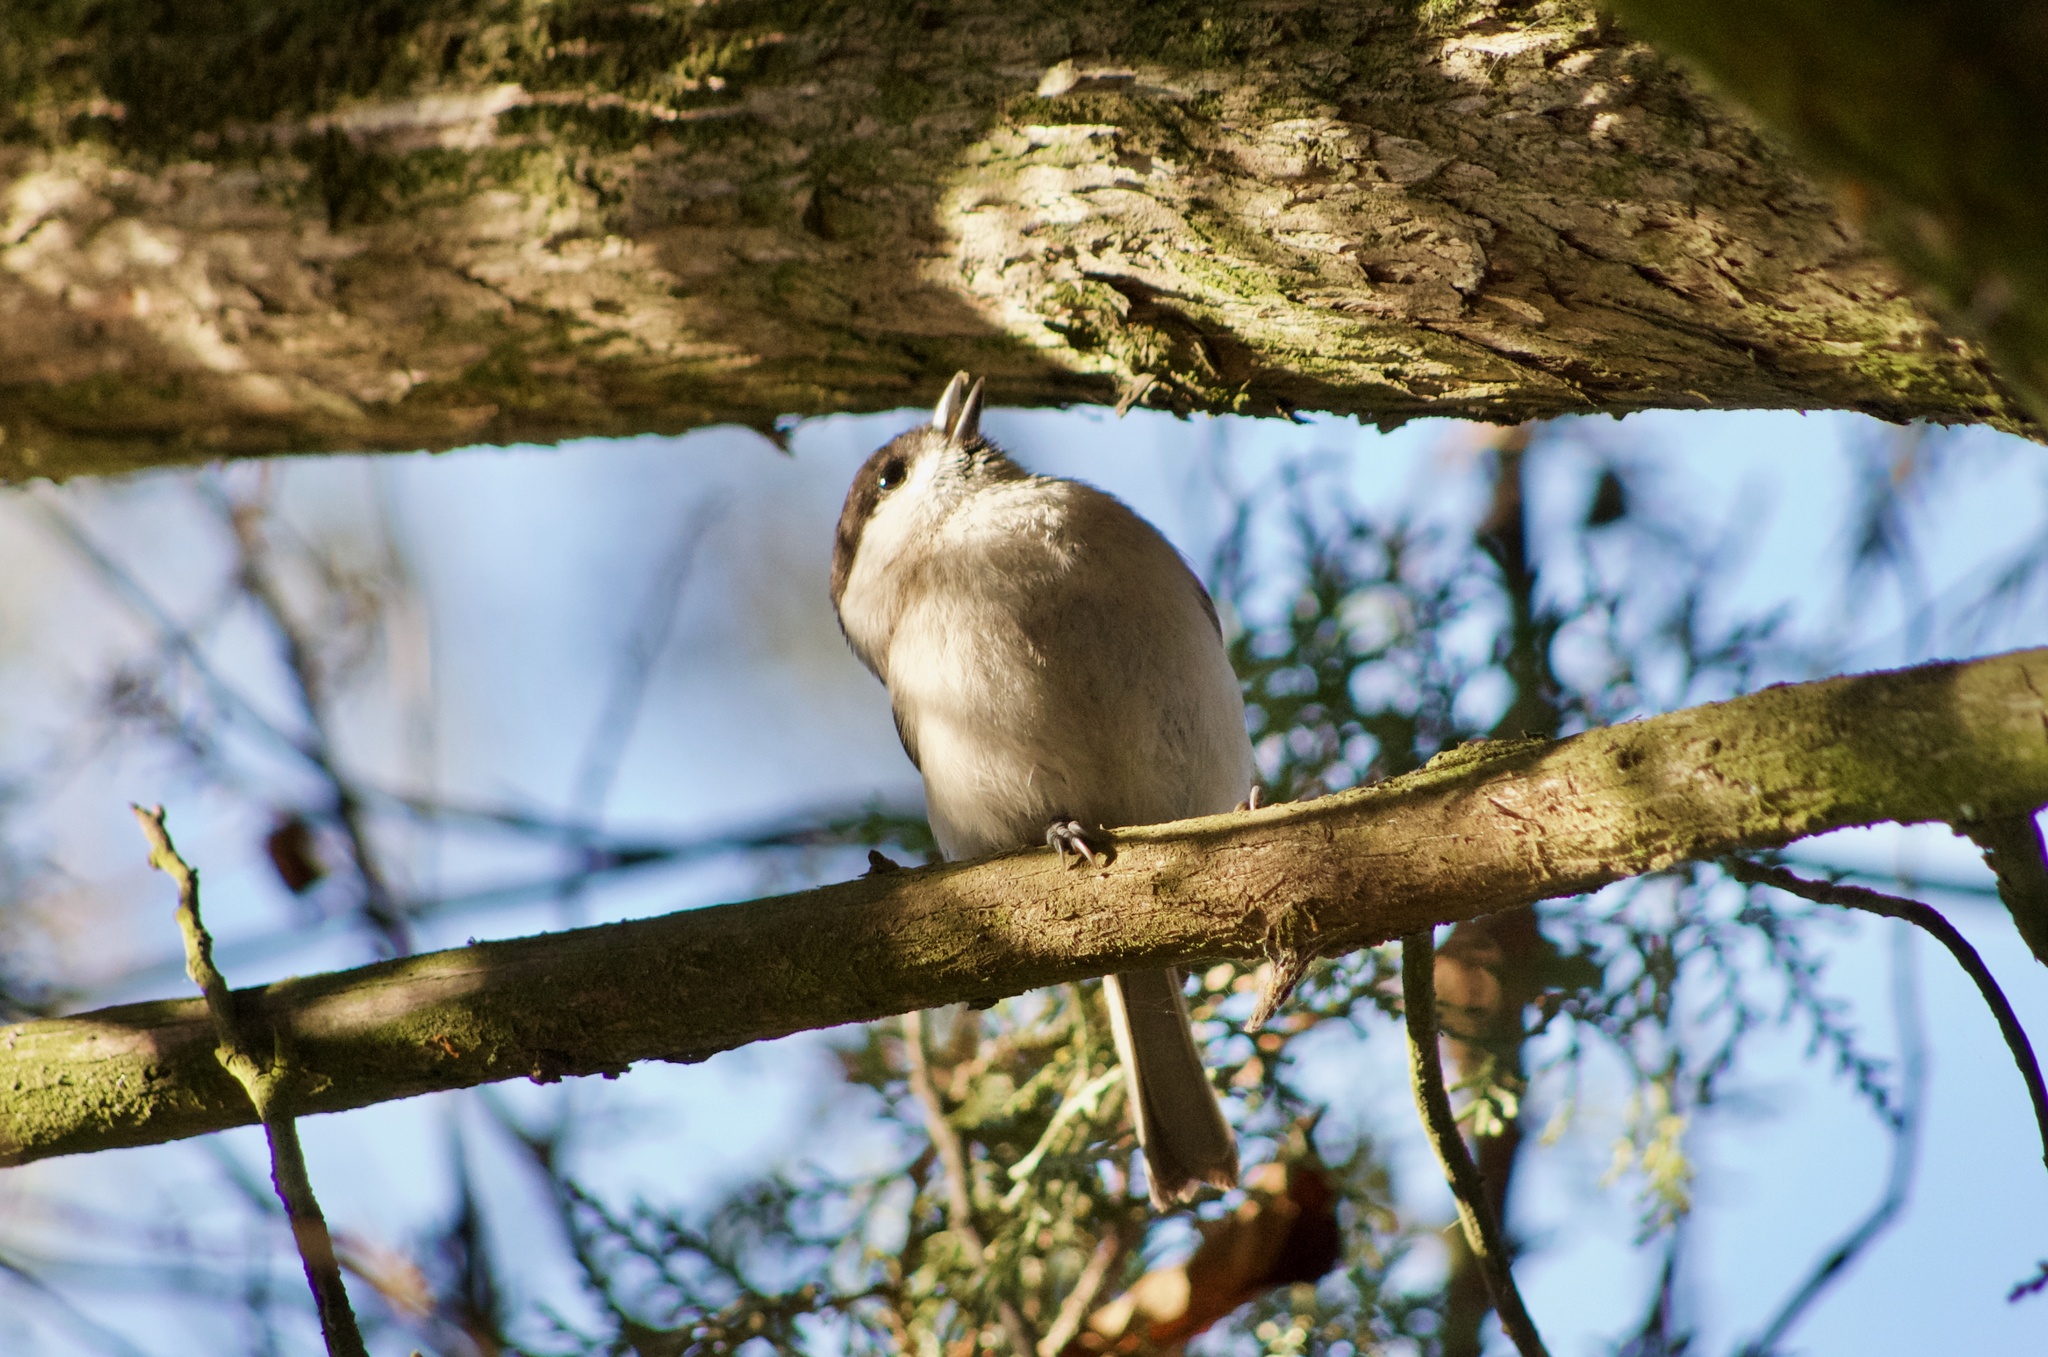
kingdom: Animalia
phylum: Chordata
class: Aves
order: Passeriformes
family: Paridae
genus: Poecile
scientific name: Poecile palustris
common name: Marsh tit
